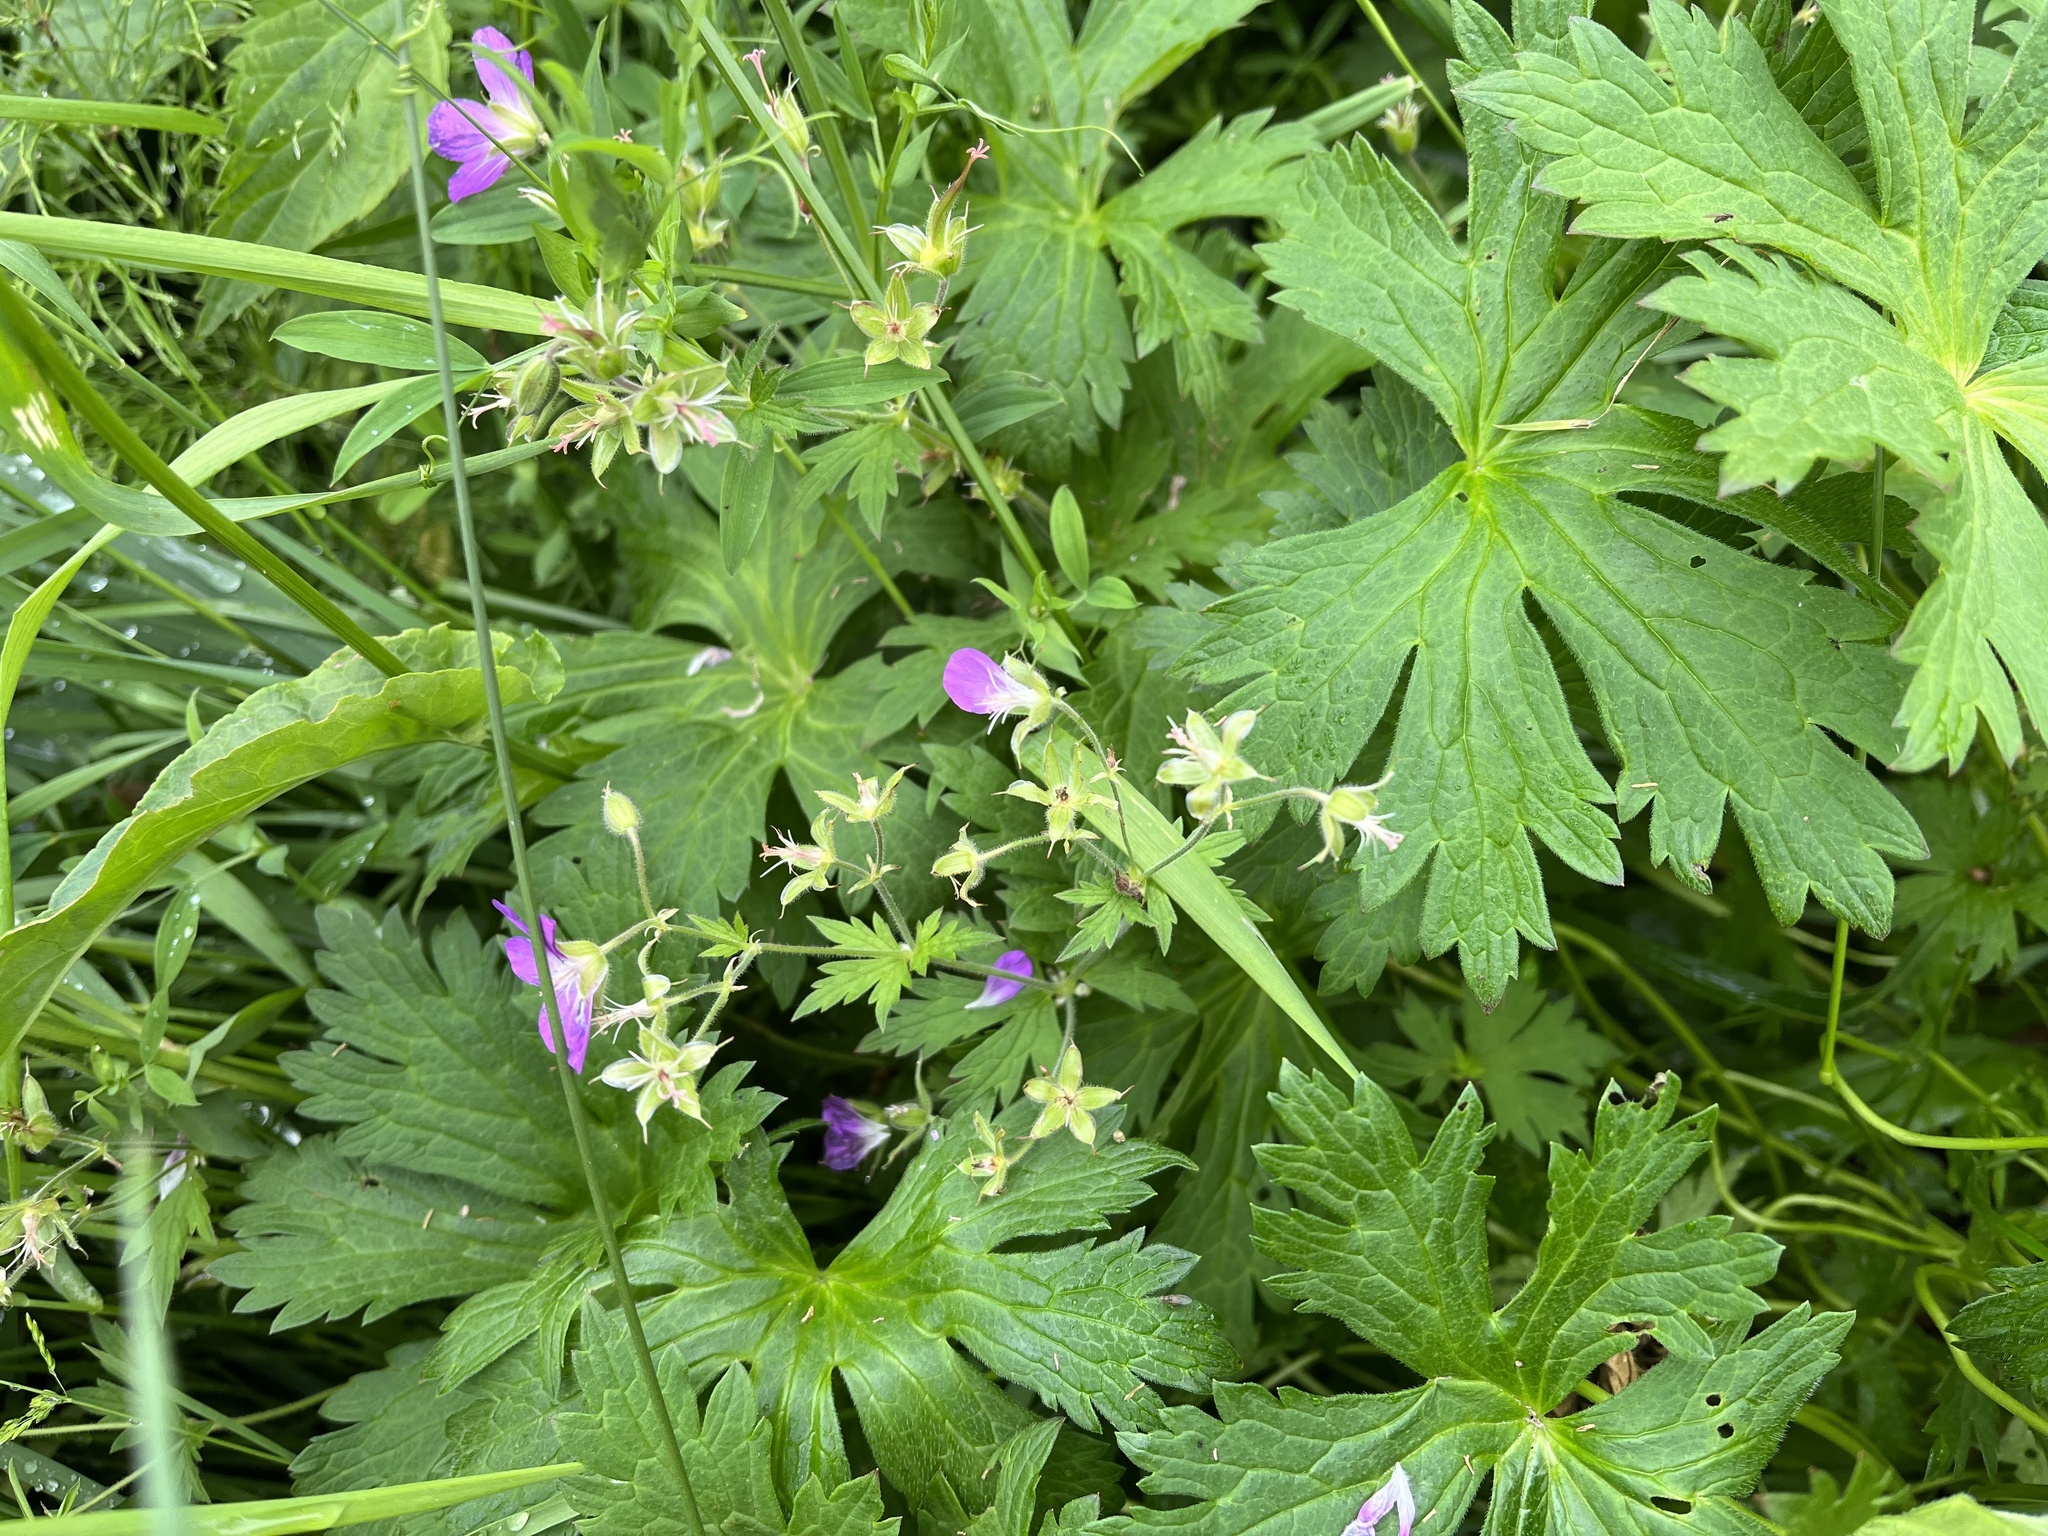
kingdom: Plantae
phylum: Tracheophyta
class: Magnoliopsida
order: Geraniales
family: Geraniaceae
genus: Geranium
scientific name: Geranium sylvaticum
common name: Wood crane's-bill
